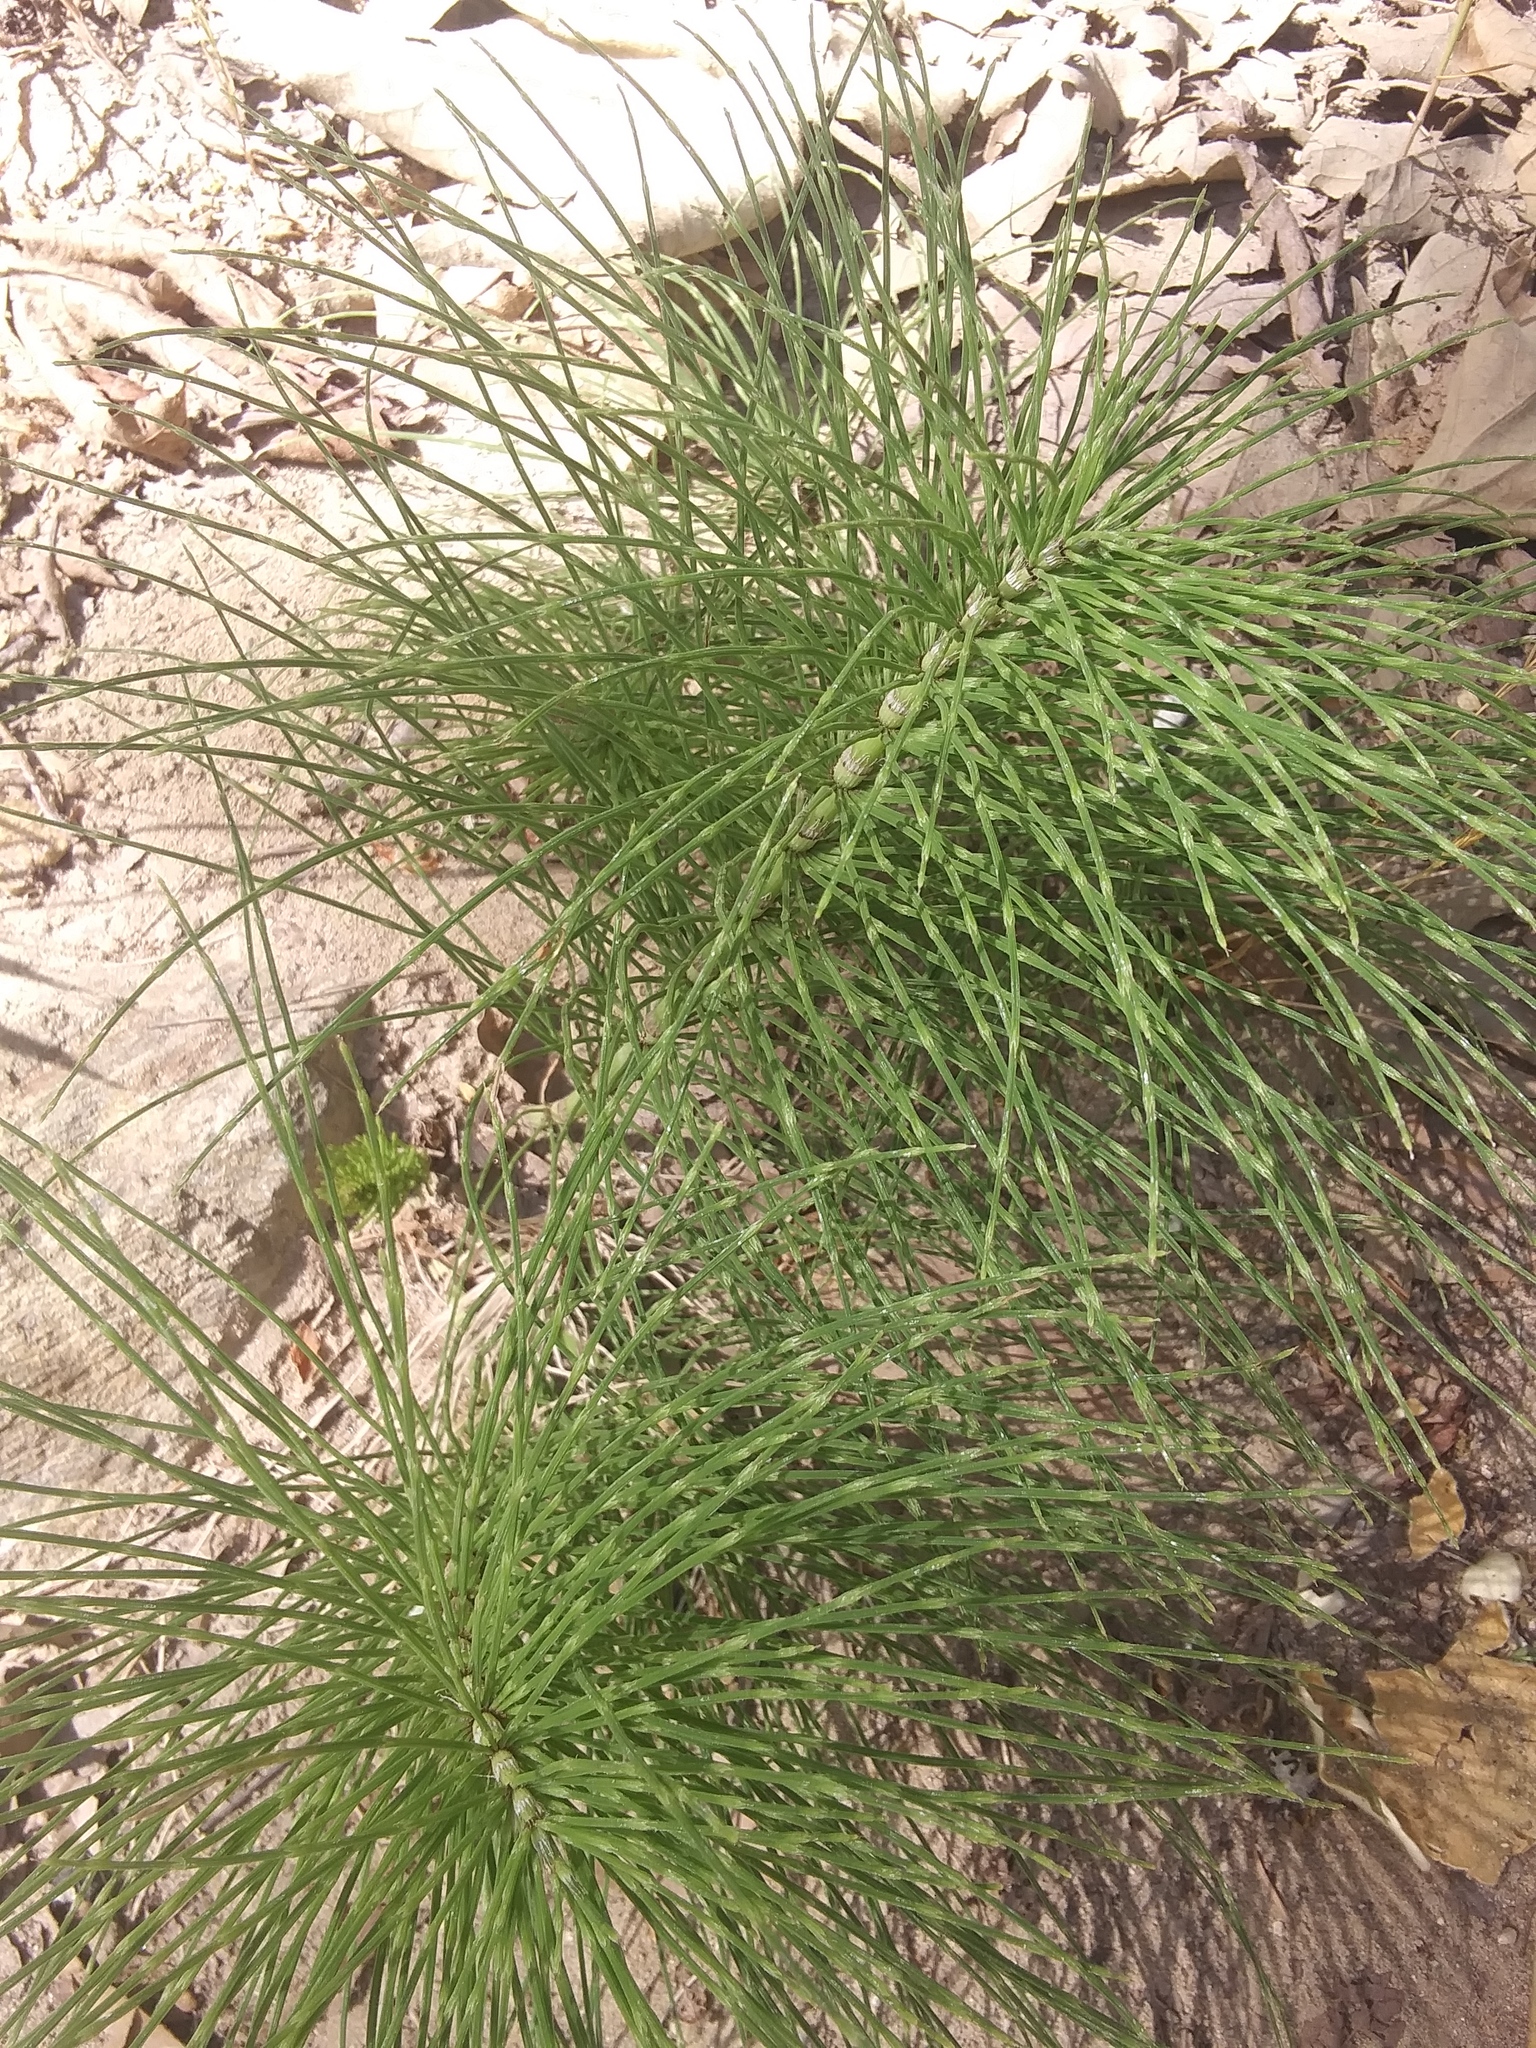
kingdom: Plantae
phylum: Tracheophyta
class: Polypodiopsida
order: Equisetales
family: Equisetaceae
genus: Equisetum
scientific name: Equisetum braunii
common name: Braun's horsetail
